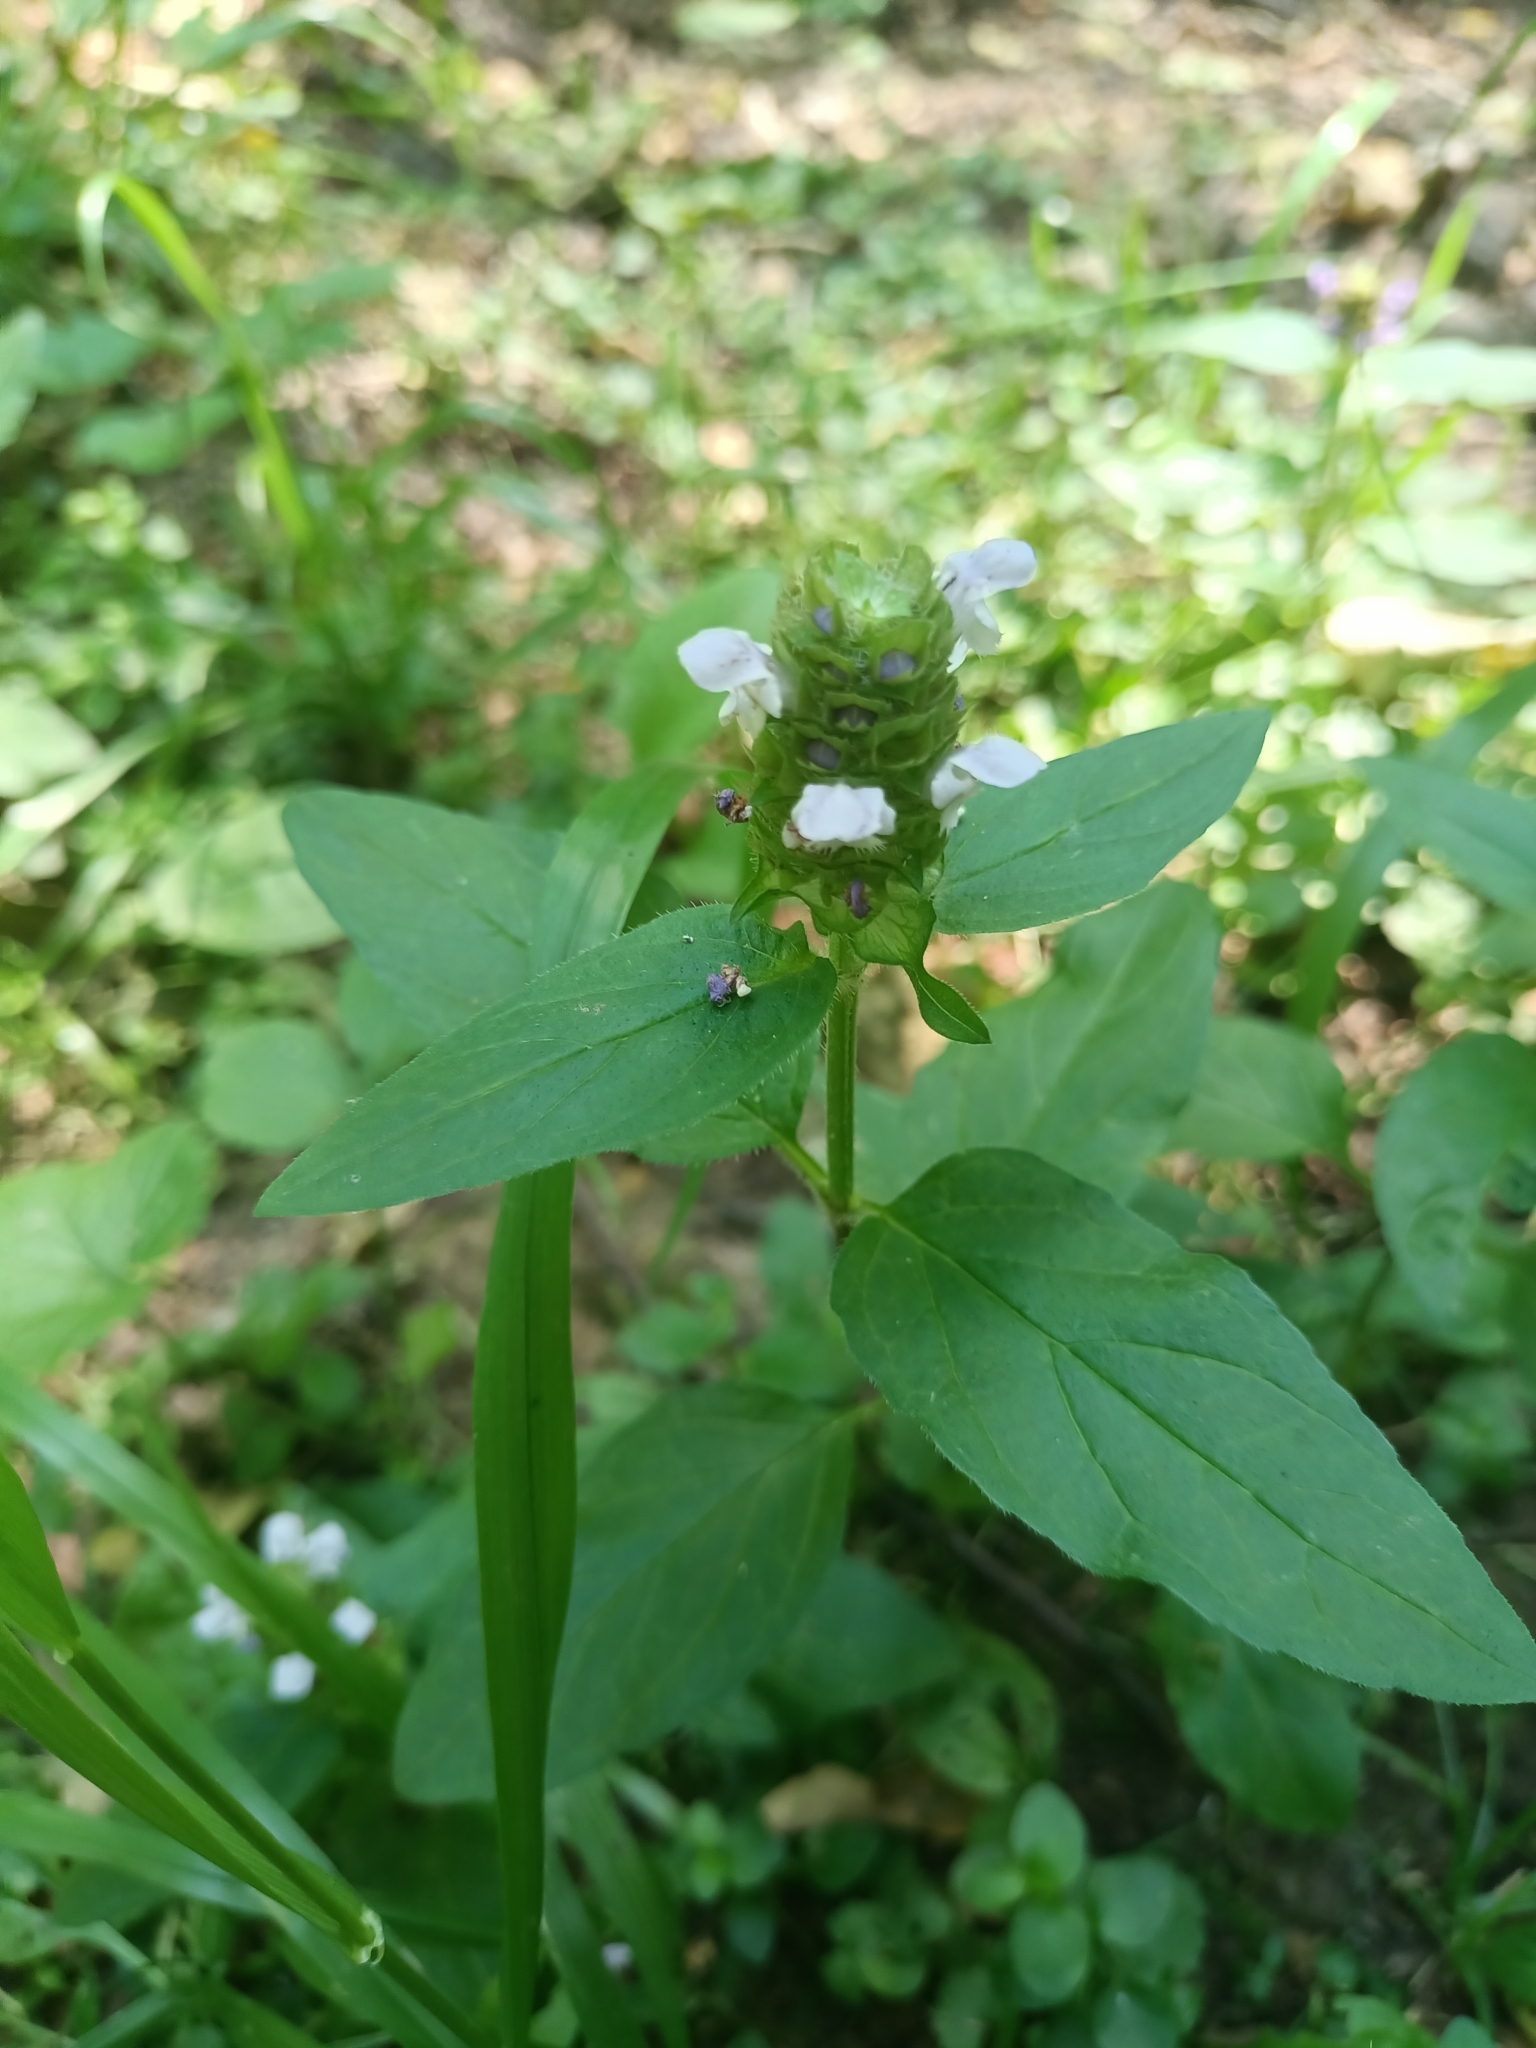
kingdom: Plantae
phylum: Tracheophyta
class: Magnoliopsida
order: Lamiales
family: Lamiaceae
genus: Prunella
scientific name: Prunella vulgaris
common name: Heal-all
